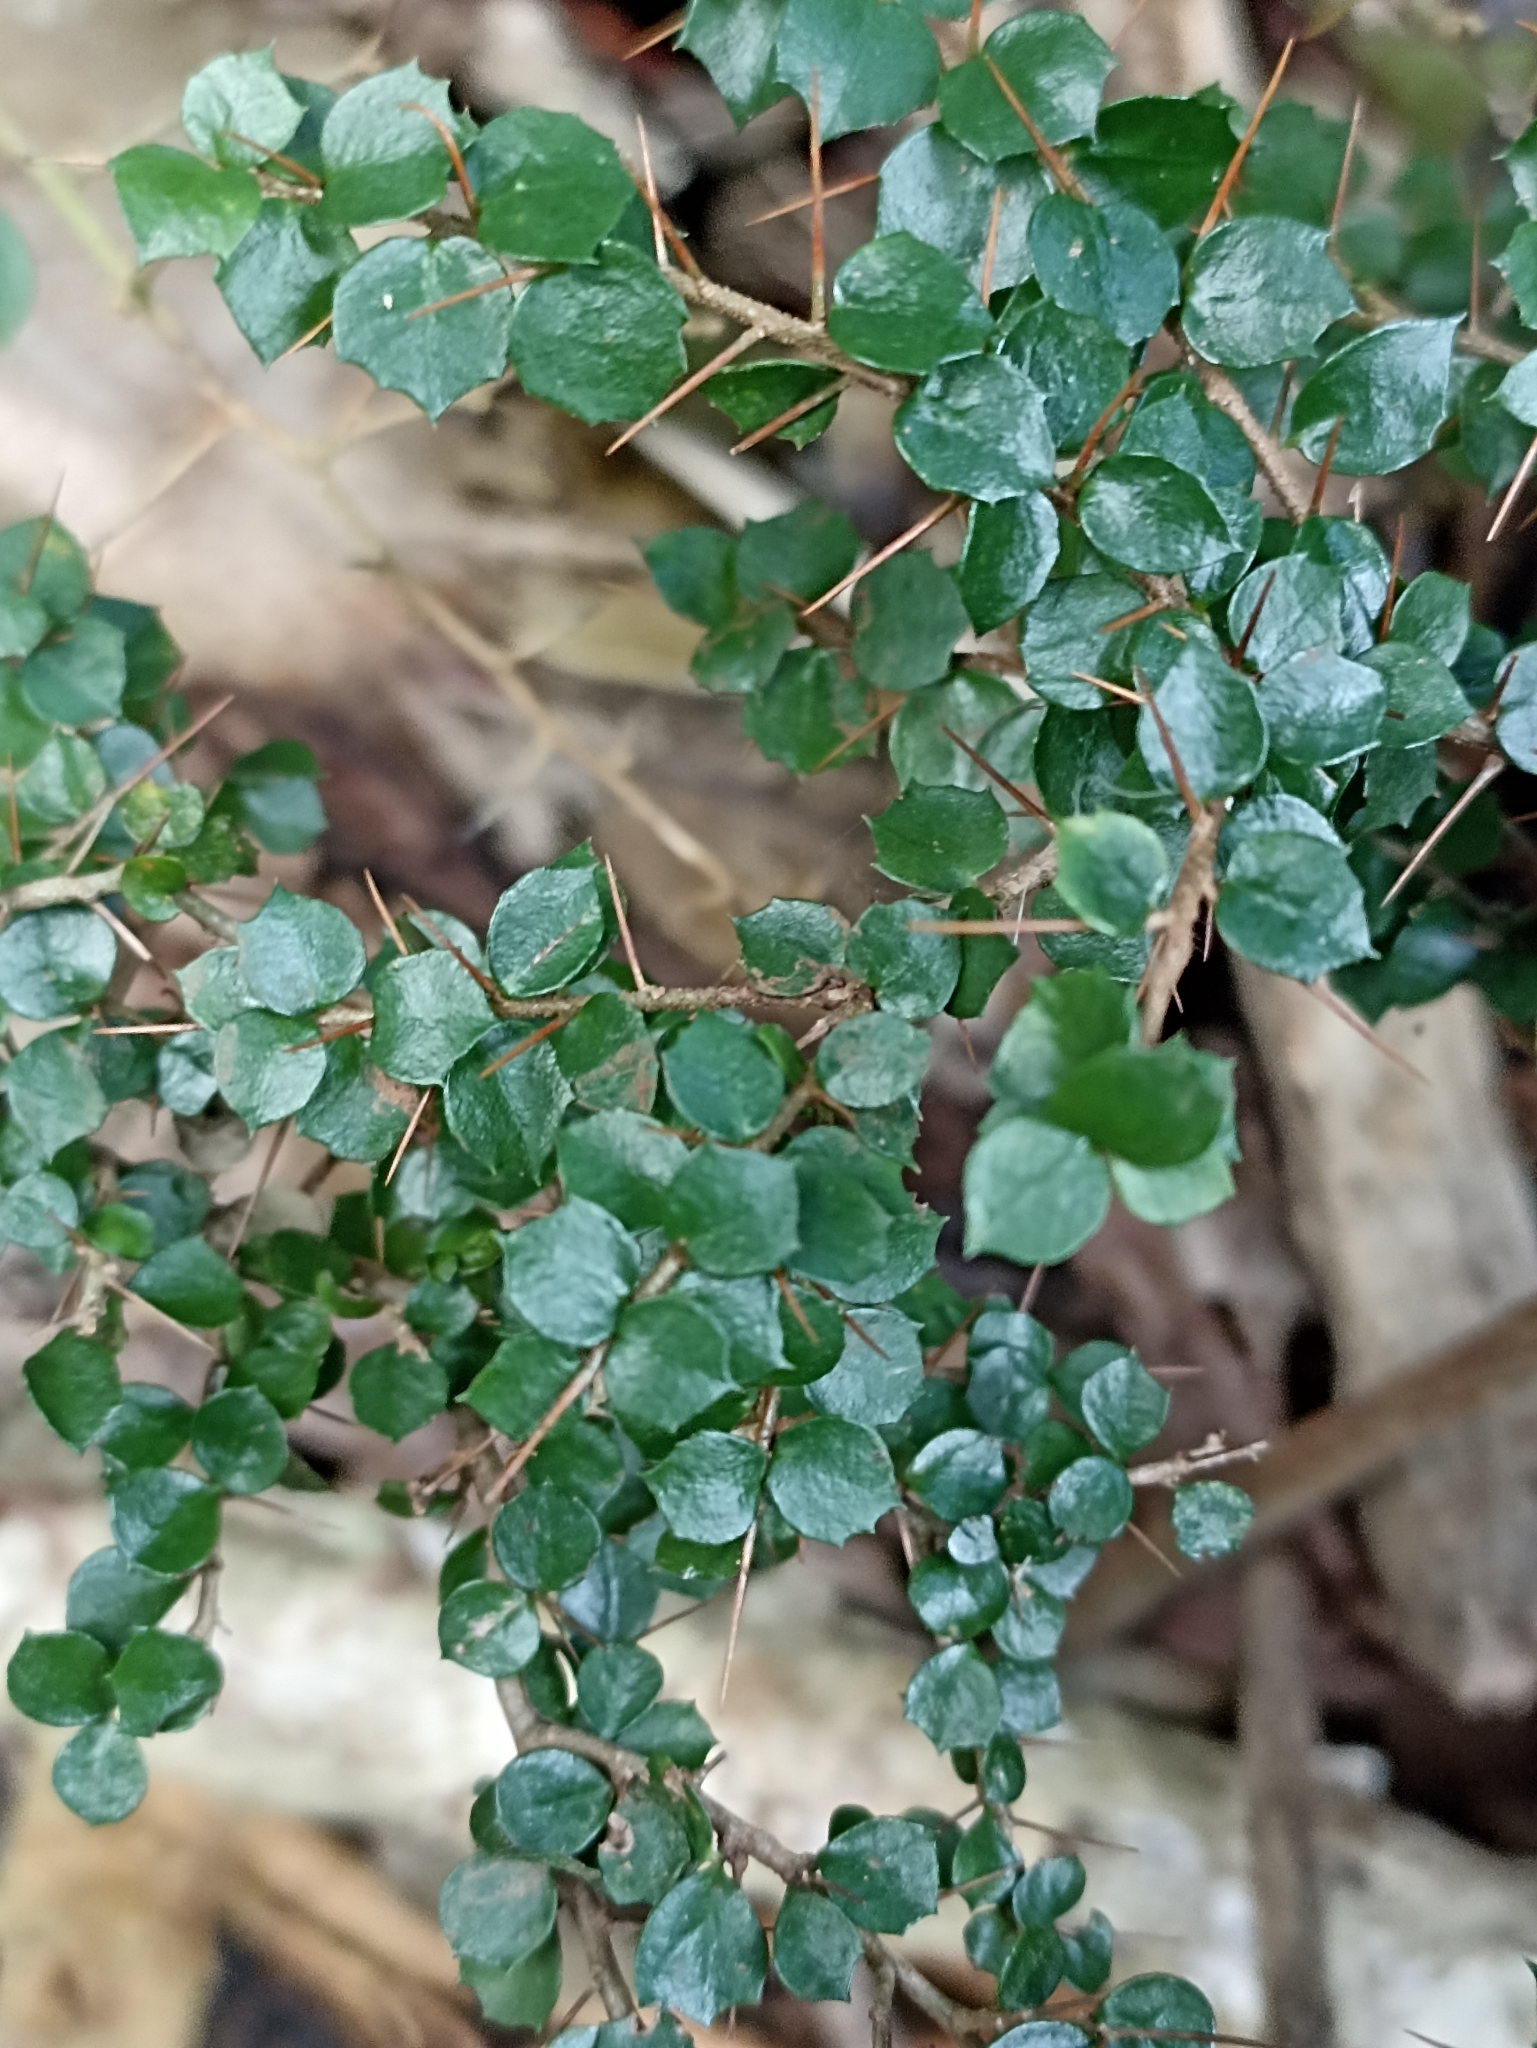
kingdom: Plantae
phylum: Tracheophyta
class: Magnoliopsida
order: Apiales
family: Pittosporaceae
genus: Pittosporum
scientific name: Pittosporum multiflorum
